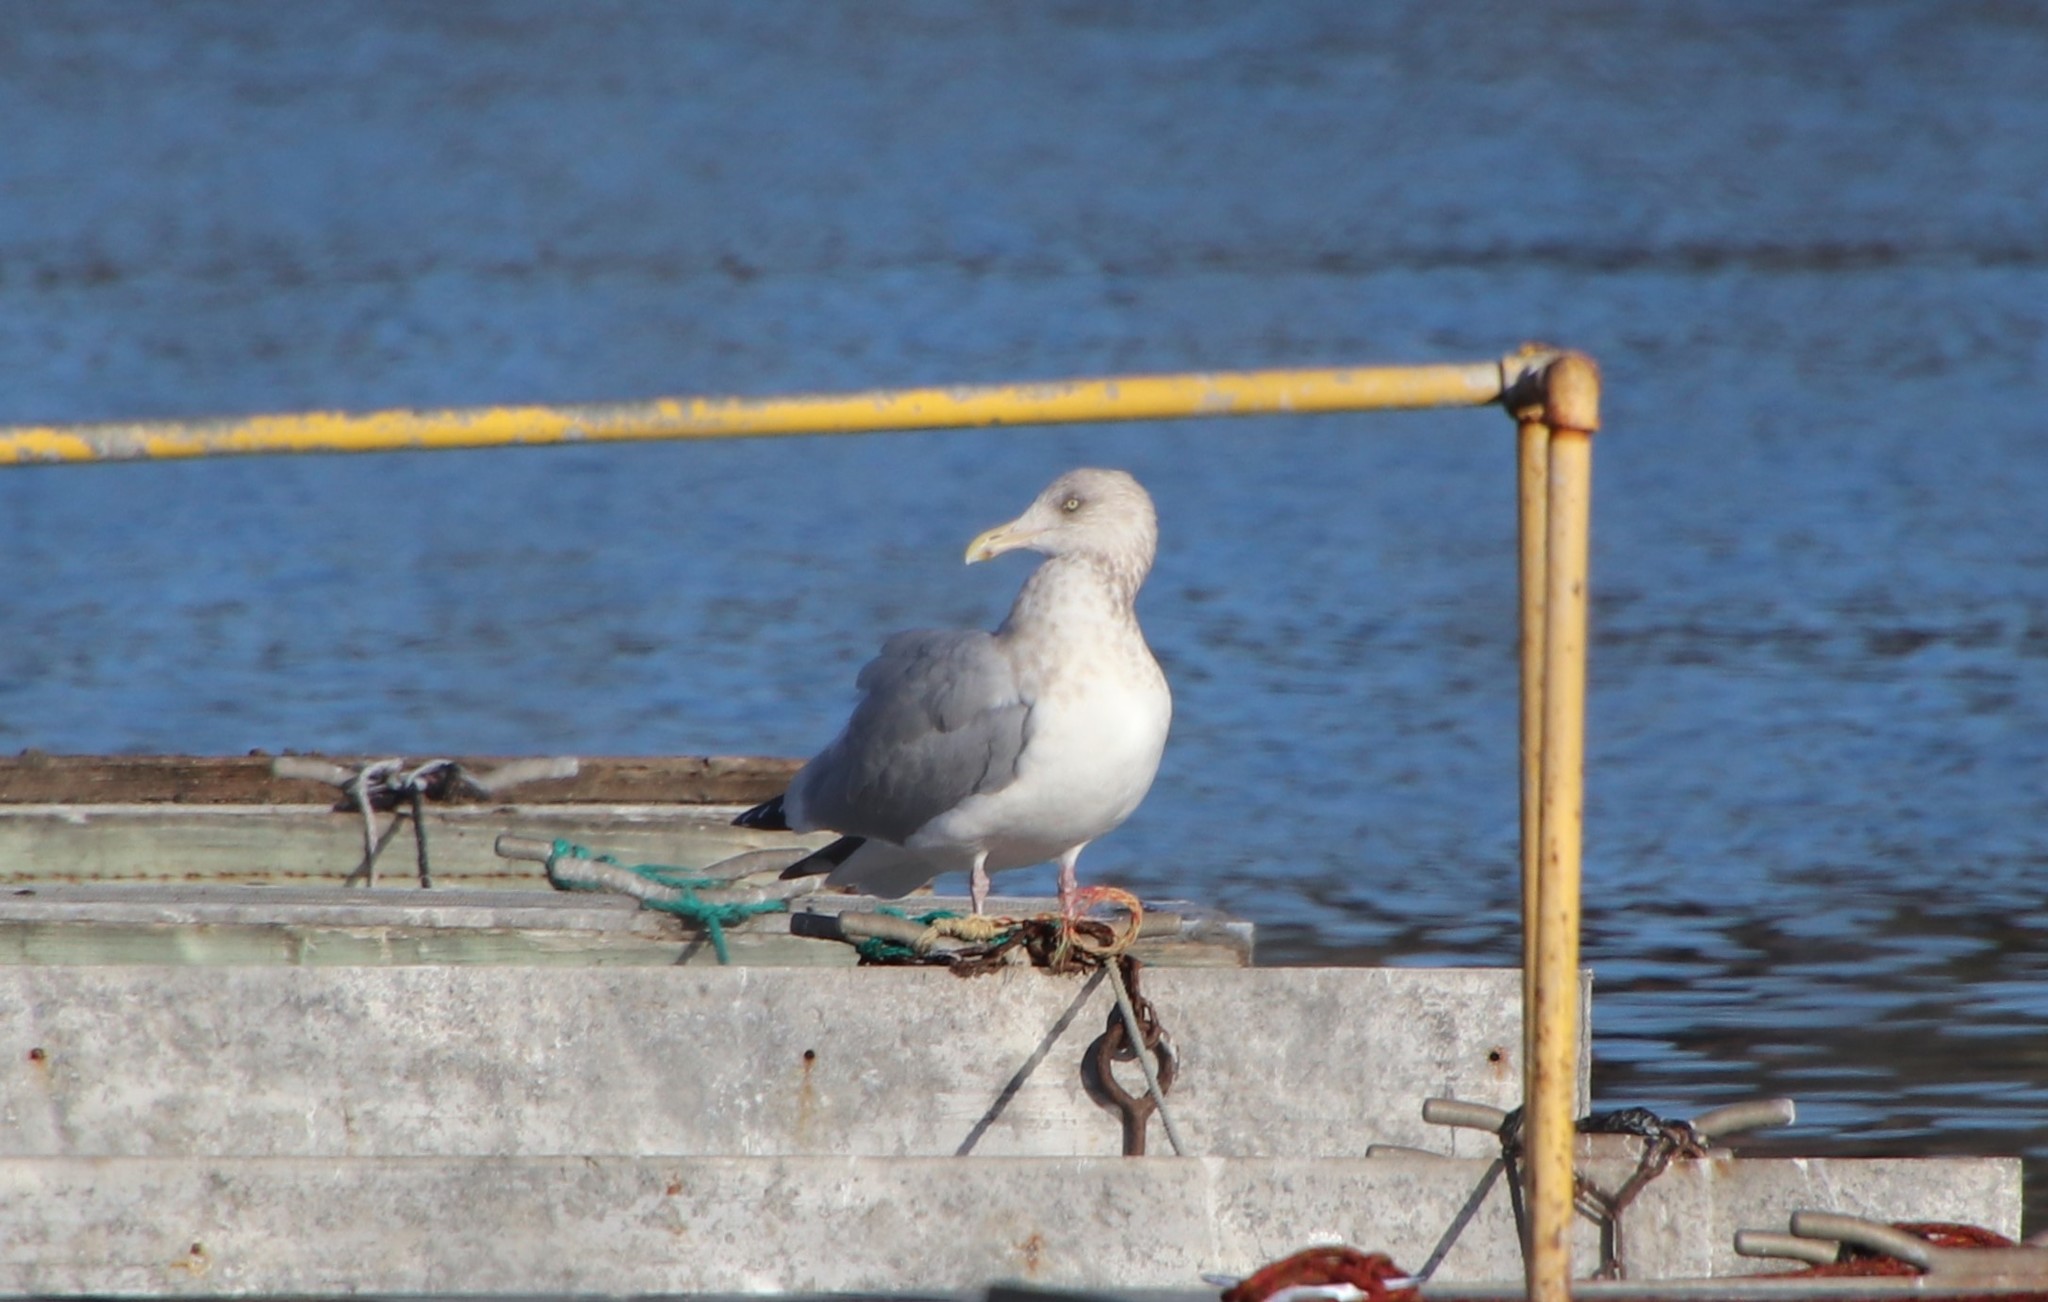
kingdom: Animalia
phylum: Chordata
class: Aves
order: Charadriiformes
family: Laridae
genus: Larus
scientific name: Larus argentatus
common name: Herring gull
